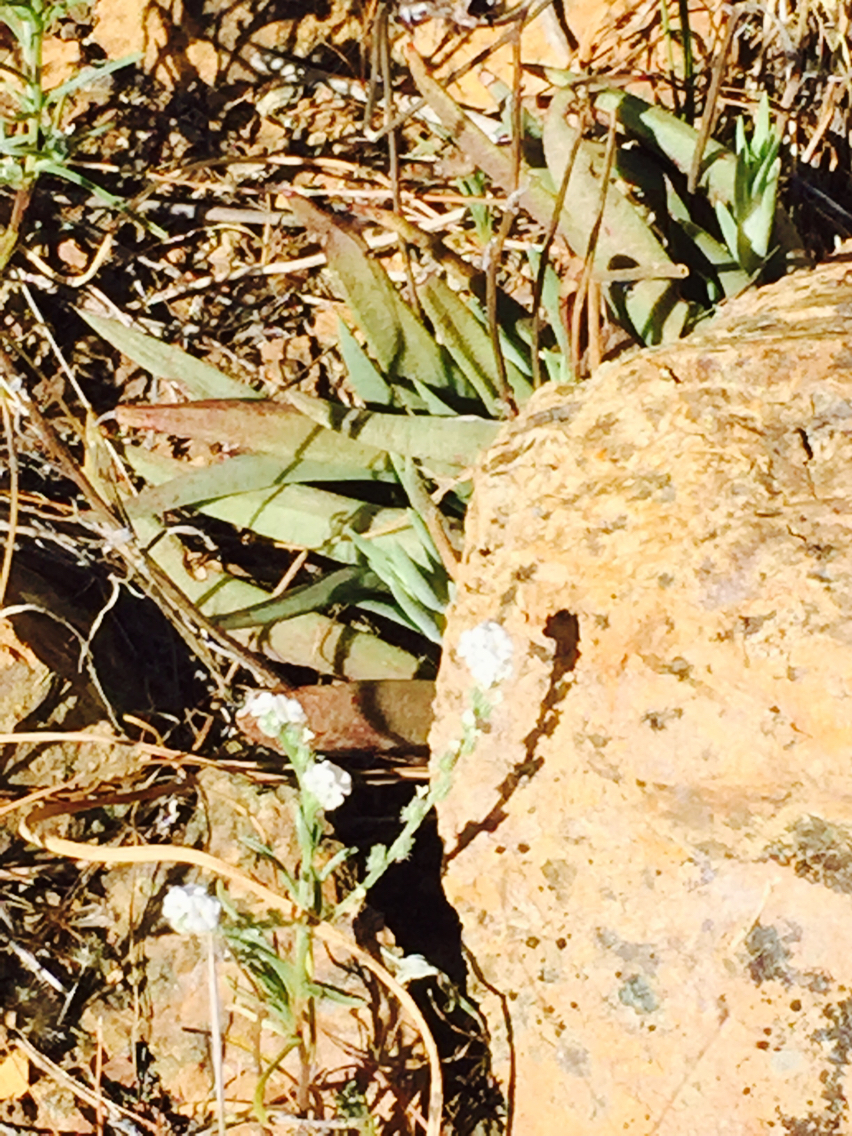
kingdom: Plantae
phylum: Tracheophyta
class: Magnoliopsida
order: Saxifragales
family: Crassulaceae
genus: Dudleya
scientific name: Dudleya abramsii
